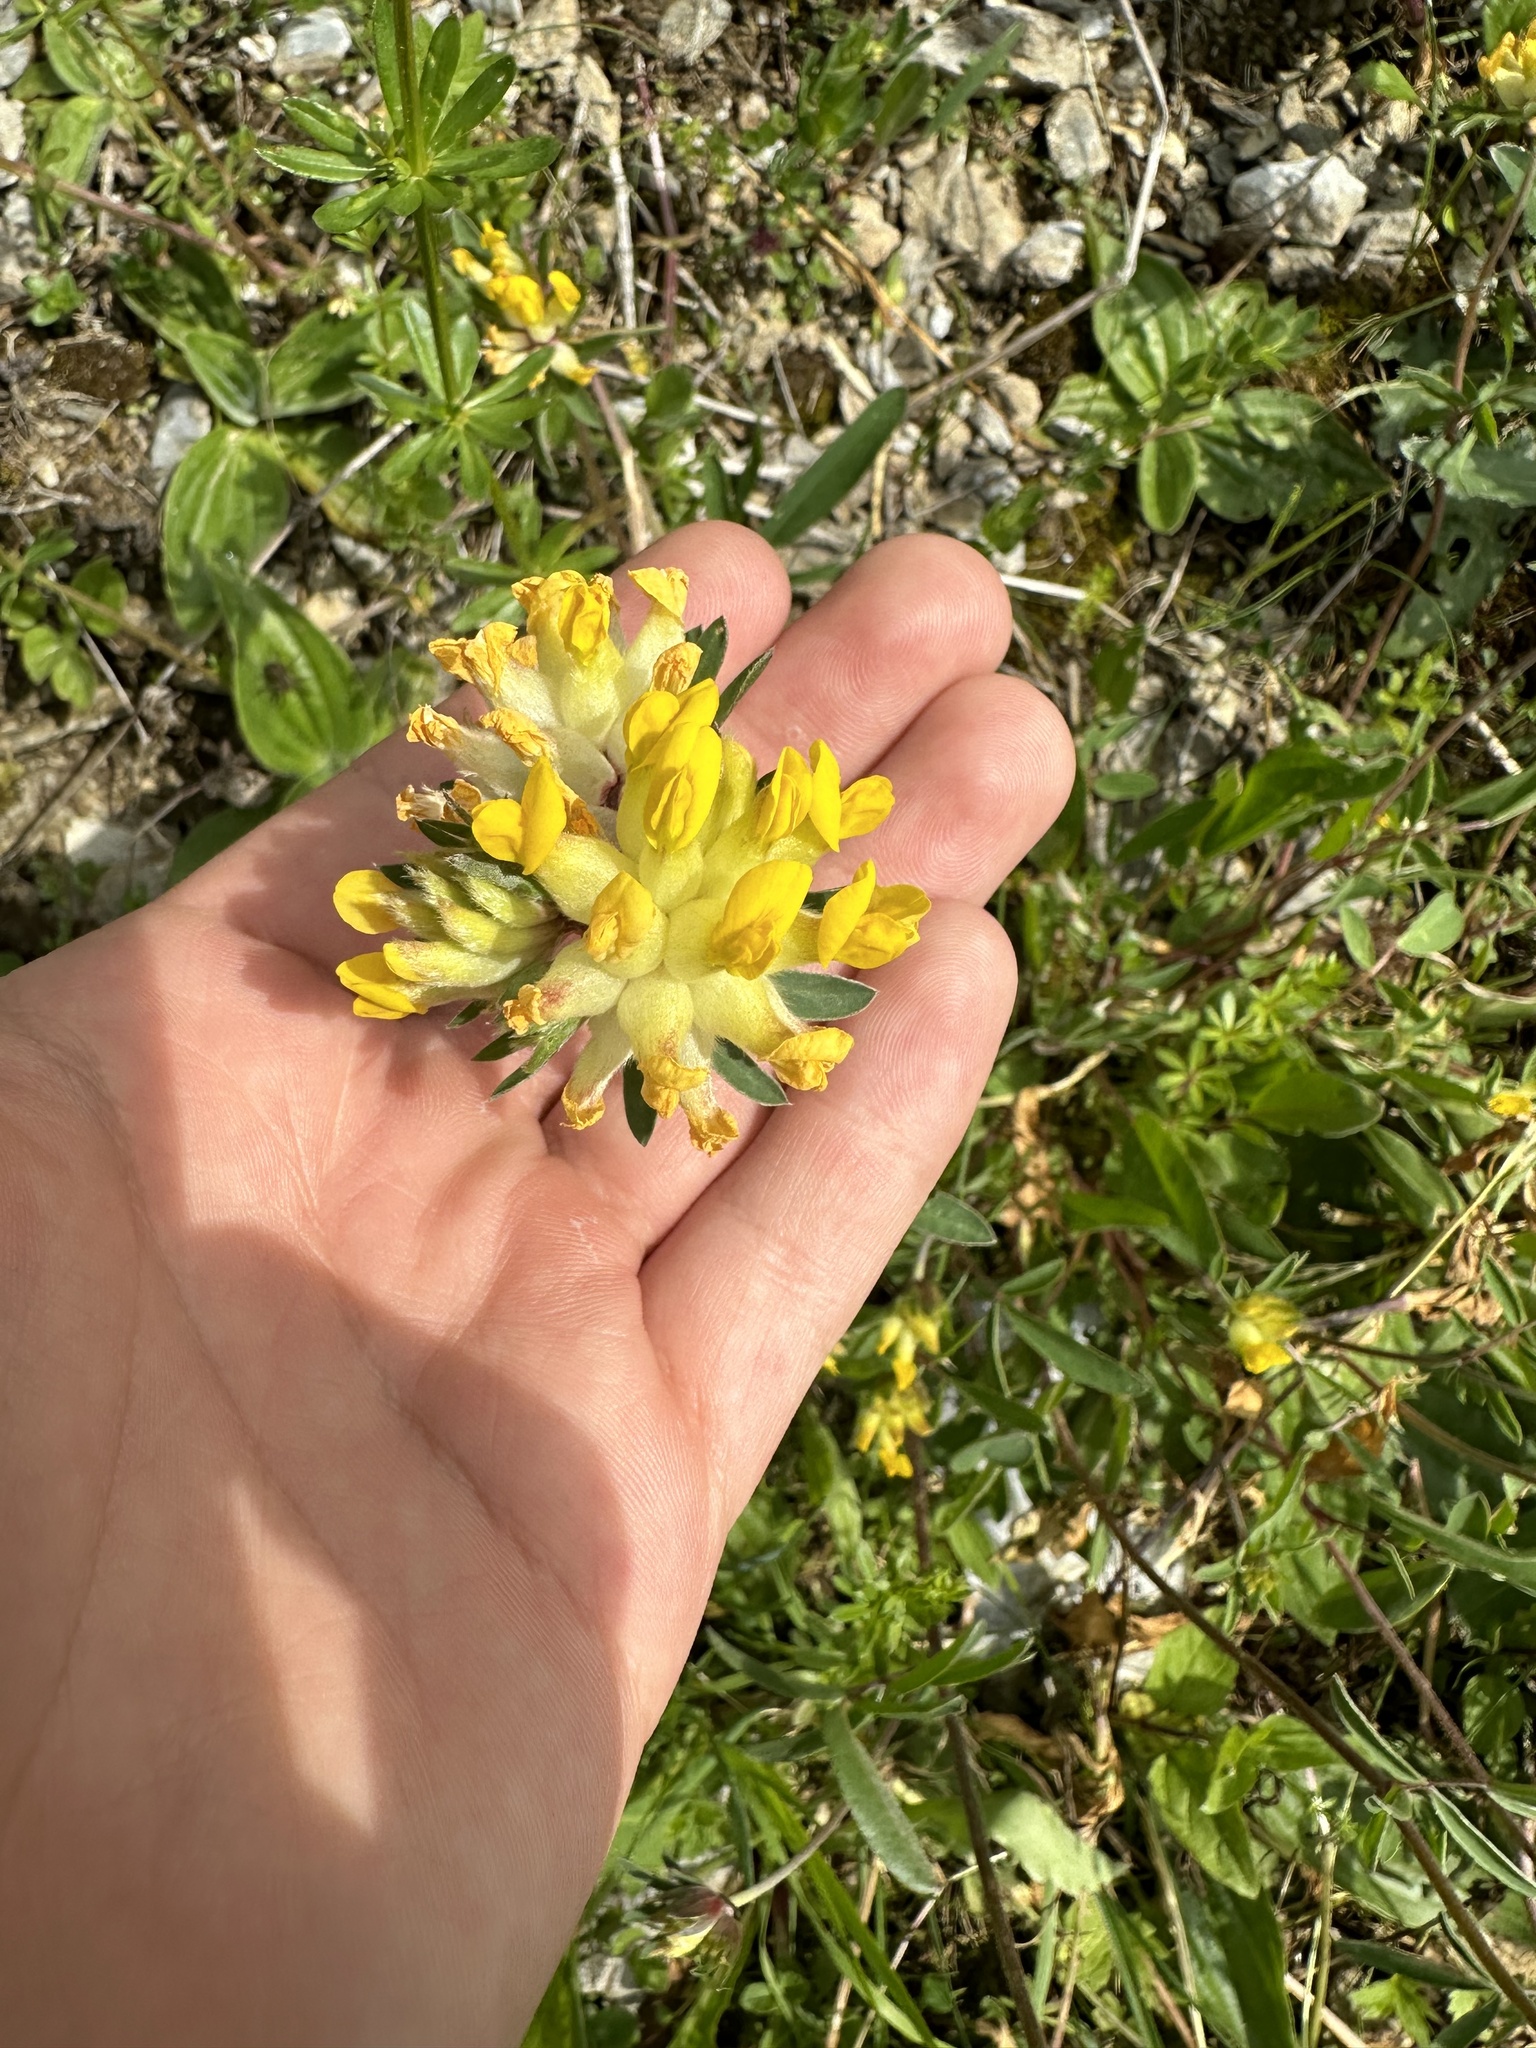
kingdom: Plantae
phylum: Tracheophyta
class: Magnoliopsida
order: Fabales
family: Fabaceae
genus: Anthyllis
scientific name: Anthyllis vulneraria
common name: Kidney vetch
